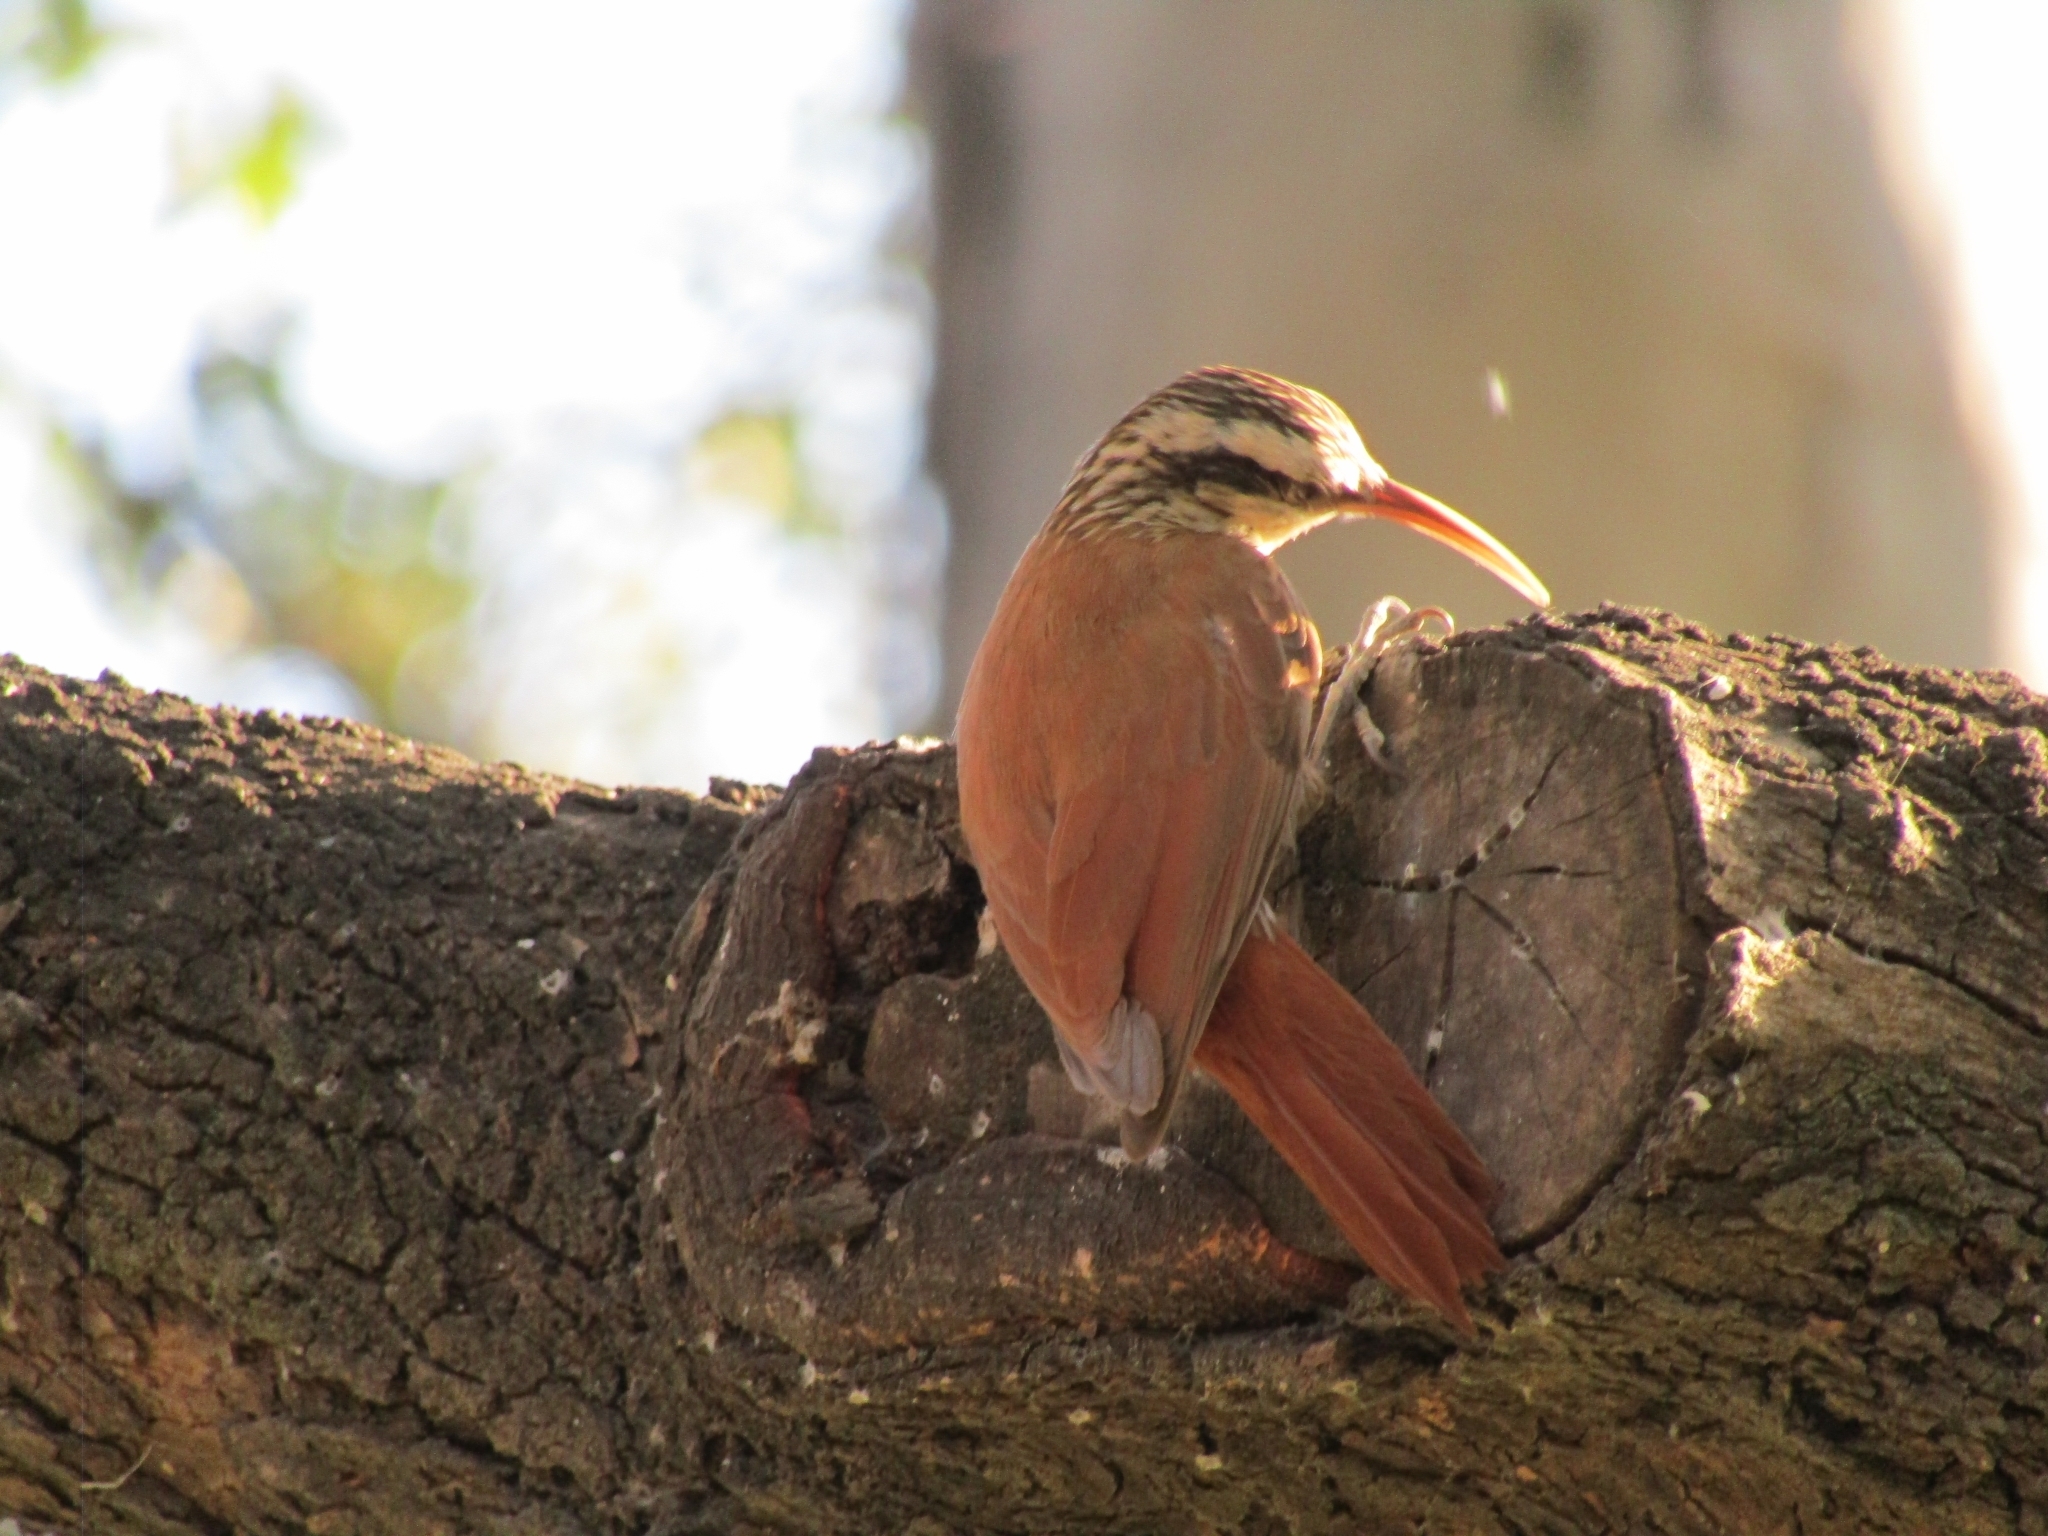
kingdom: Animalia
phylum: Chordata
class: Aves
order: Passeriformes
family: Furnariidae
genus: Lepidocolaptes
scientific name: Lepidocolaptes angustirostris
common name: Narrow-billed woodcreeper
